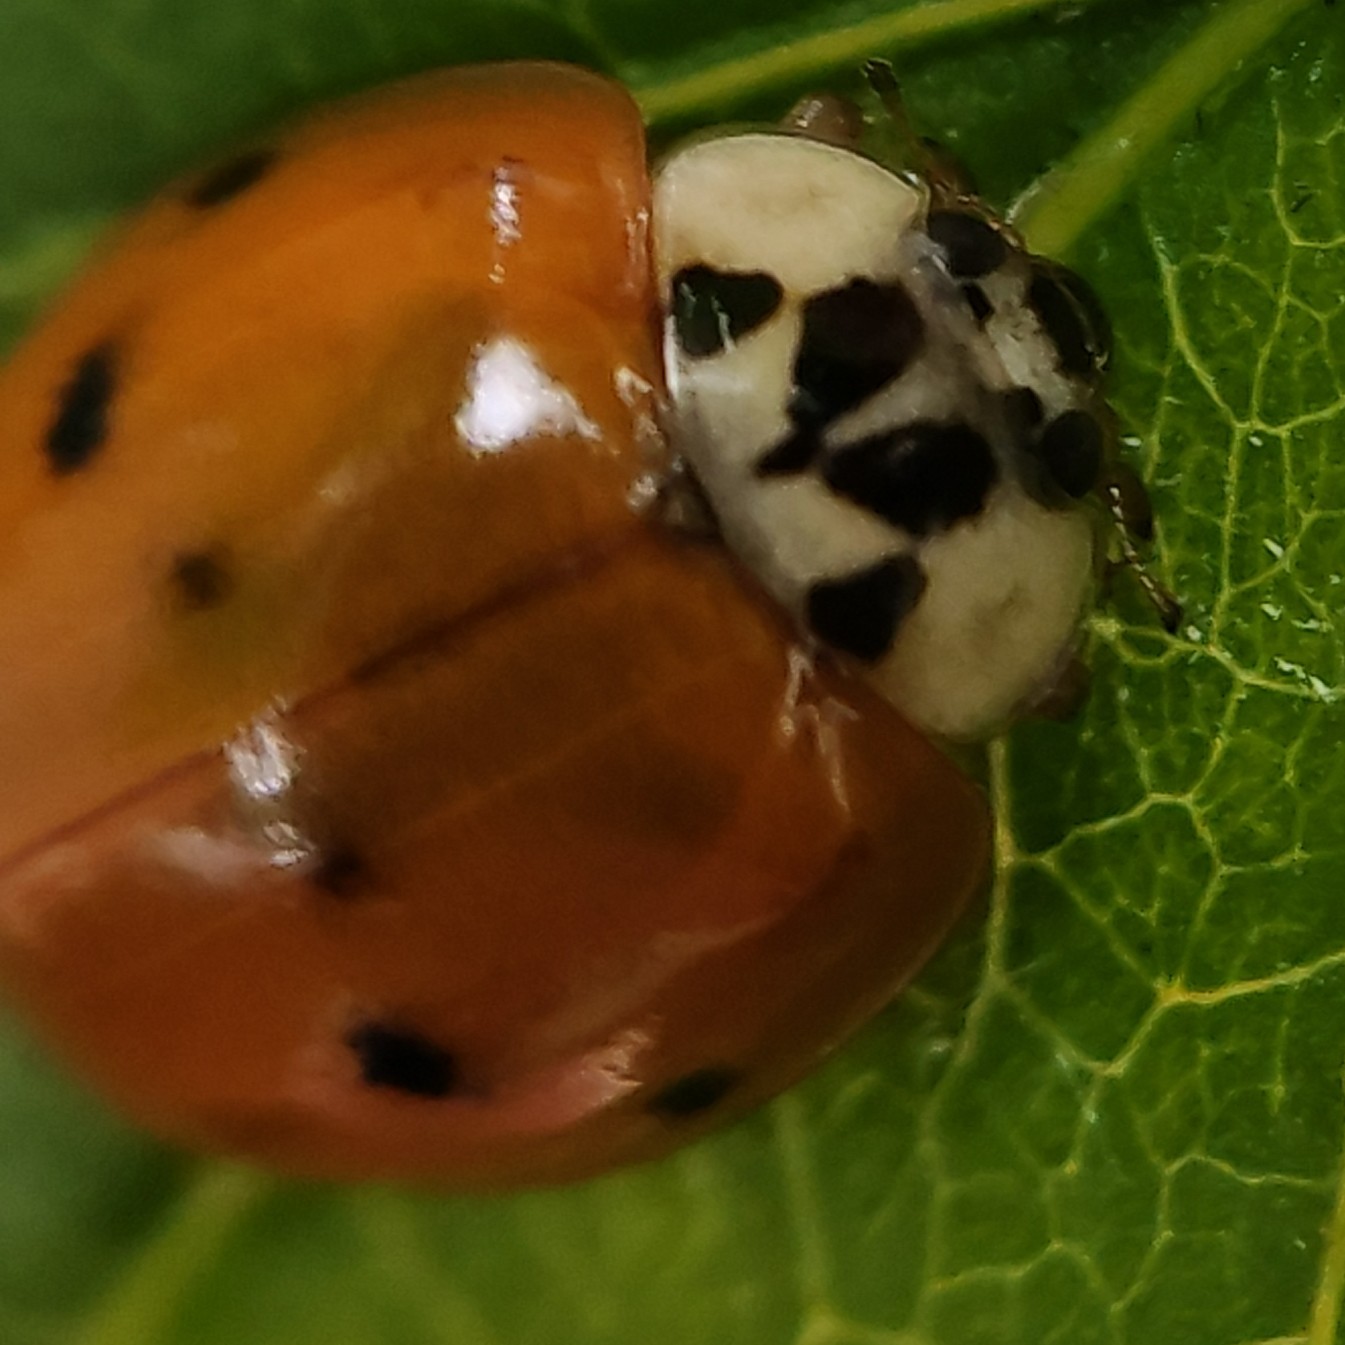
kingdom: Animalia
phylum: Arthropoda
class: Insecta
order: Coleoptera
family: Coccinellidae
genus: Harmonia
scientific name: Harmonia axyridis
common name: Harlequin ladybird
